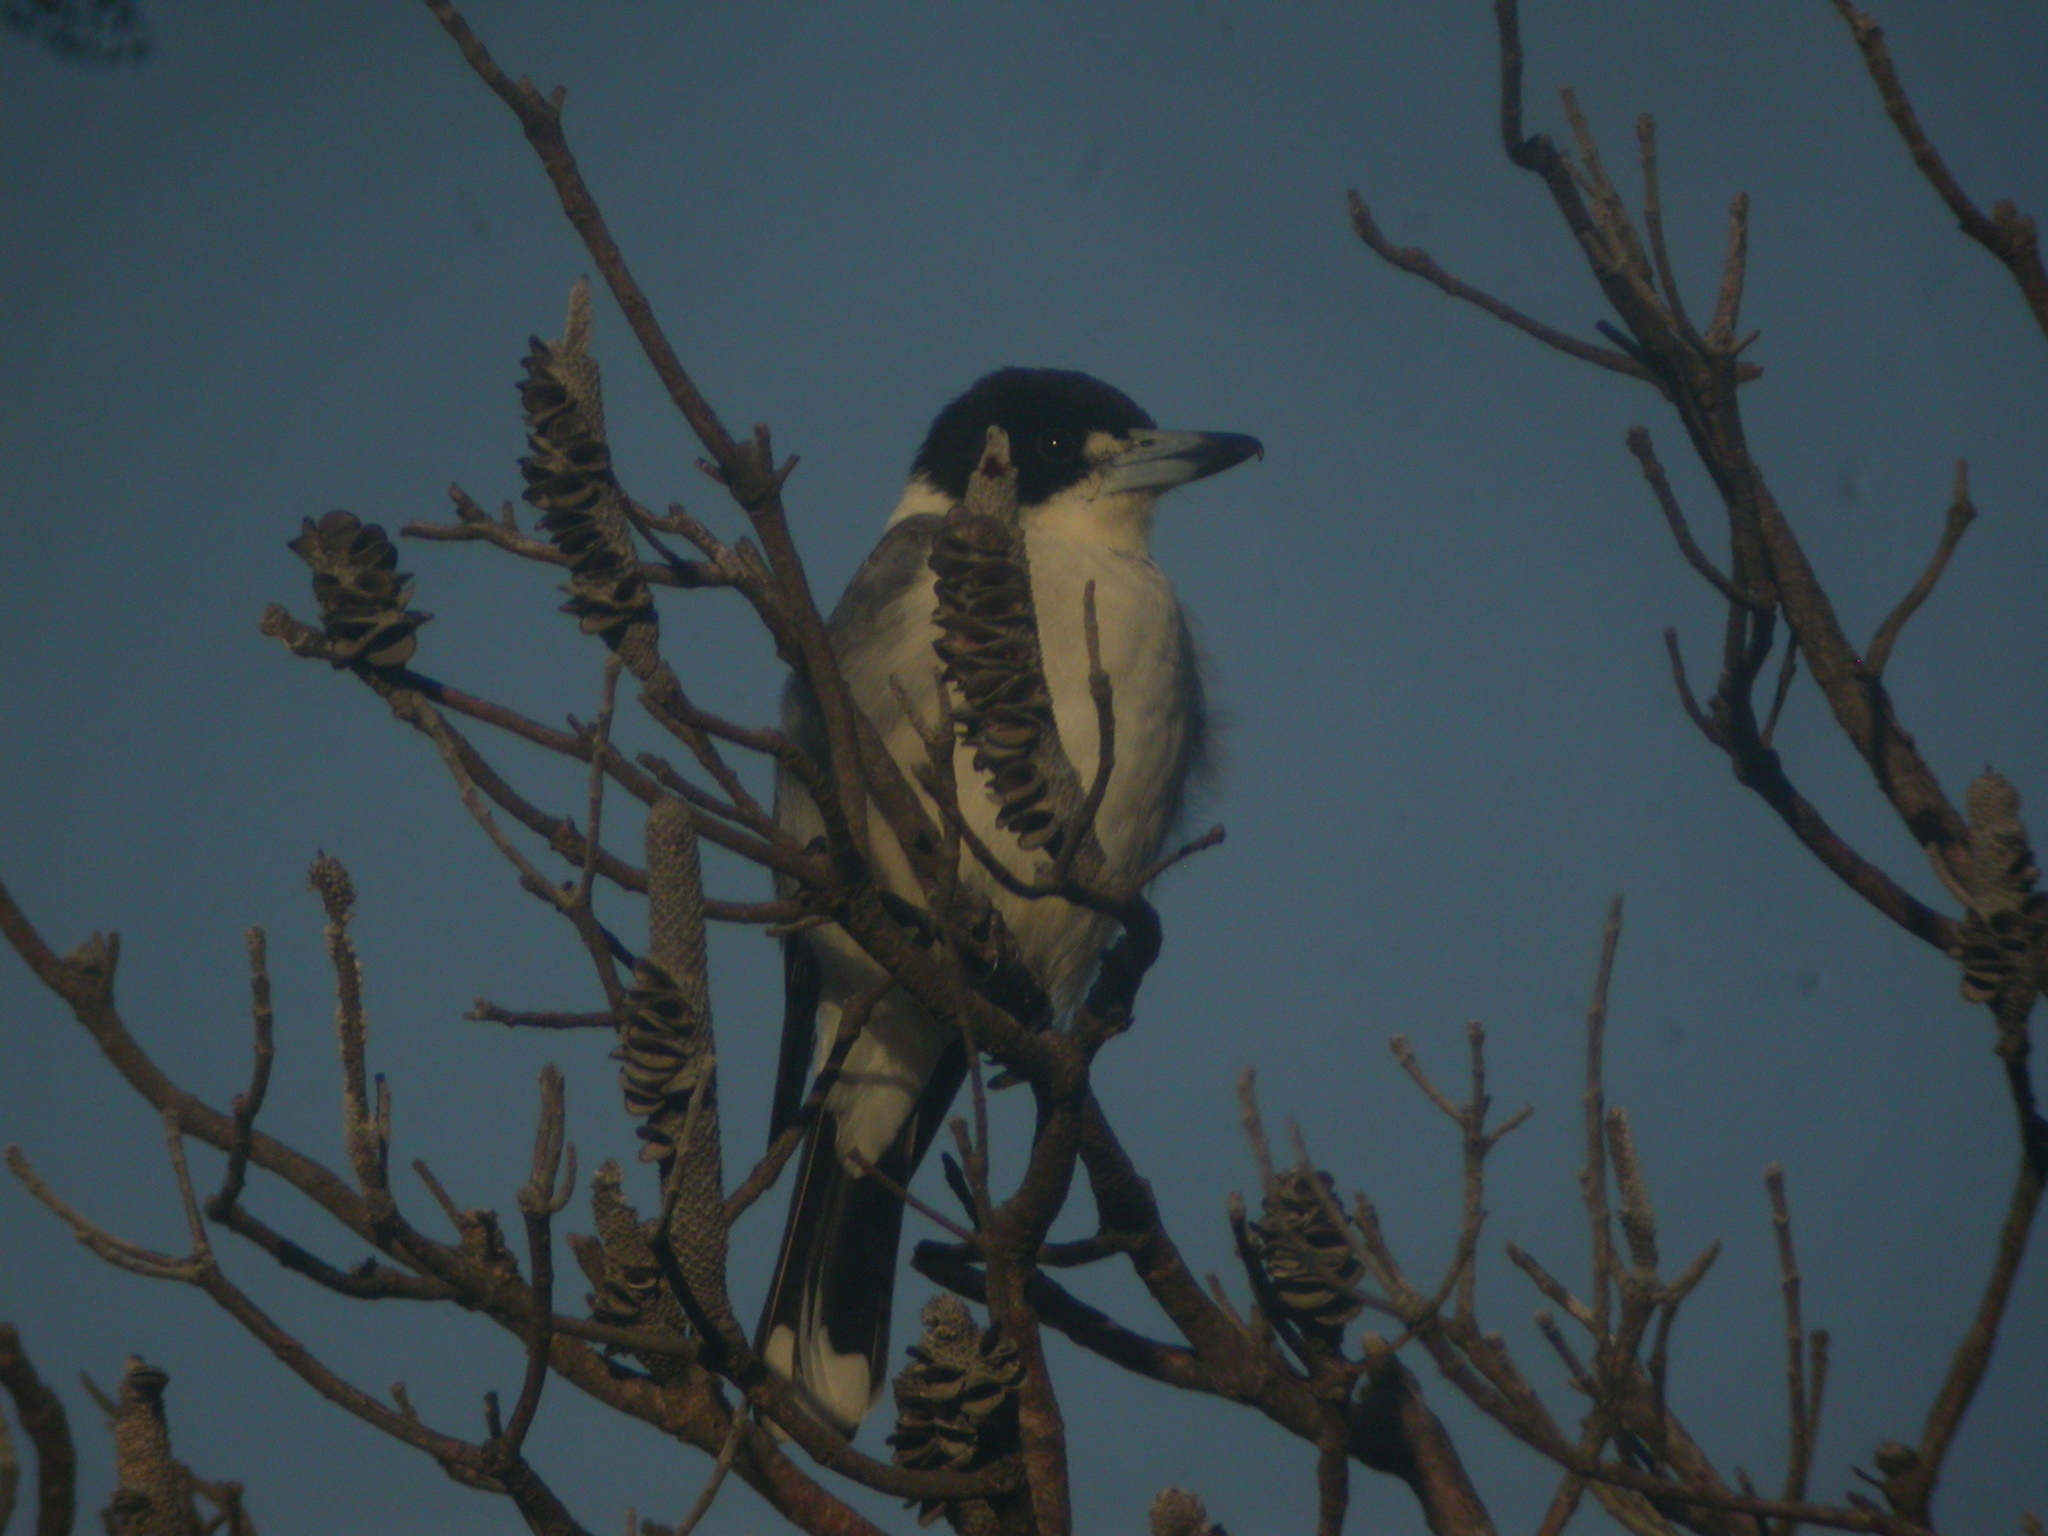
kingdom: Animalia
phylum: Chordata
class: Aves
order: Passeriformes
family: Cracticidae
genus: Cracticus
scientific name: Cracticus torquatus
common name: Grey butcherbird
